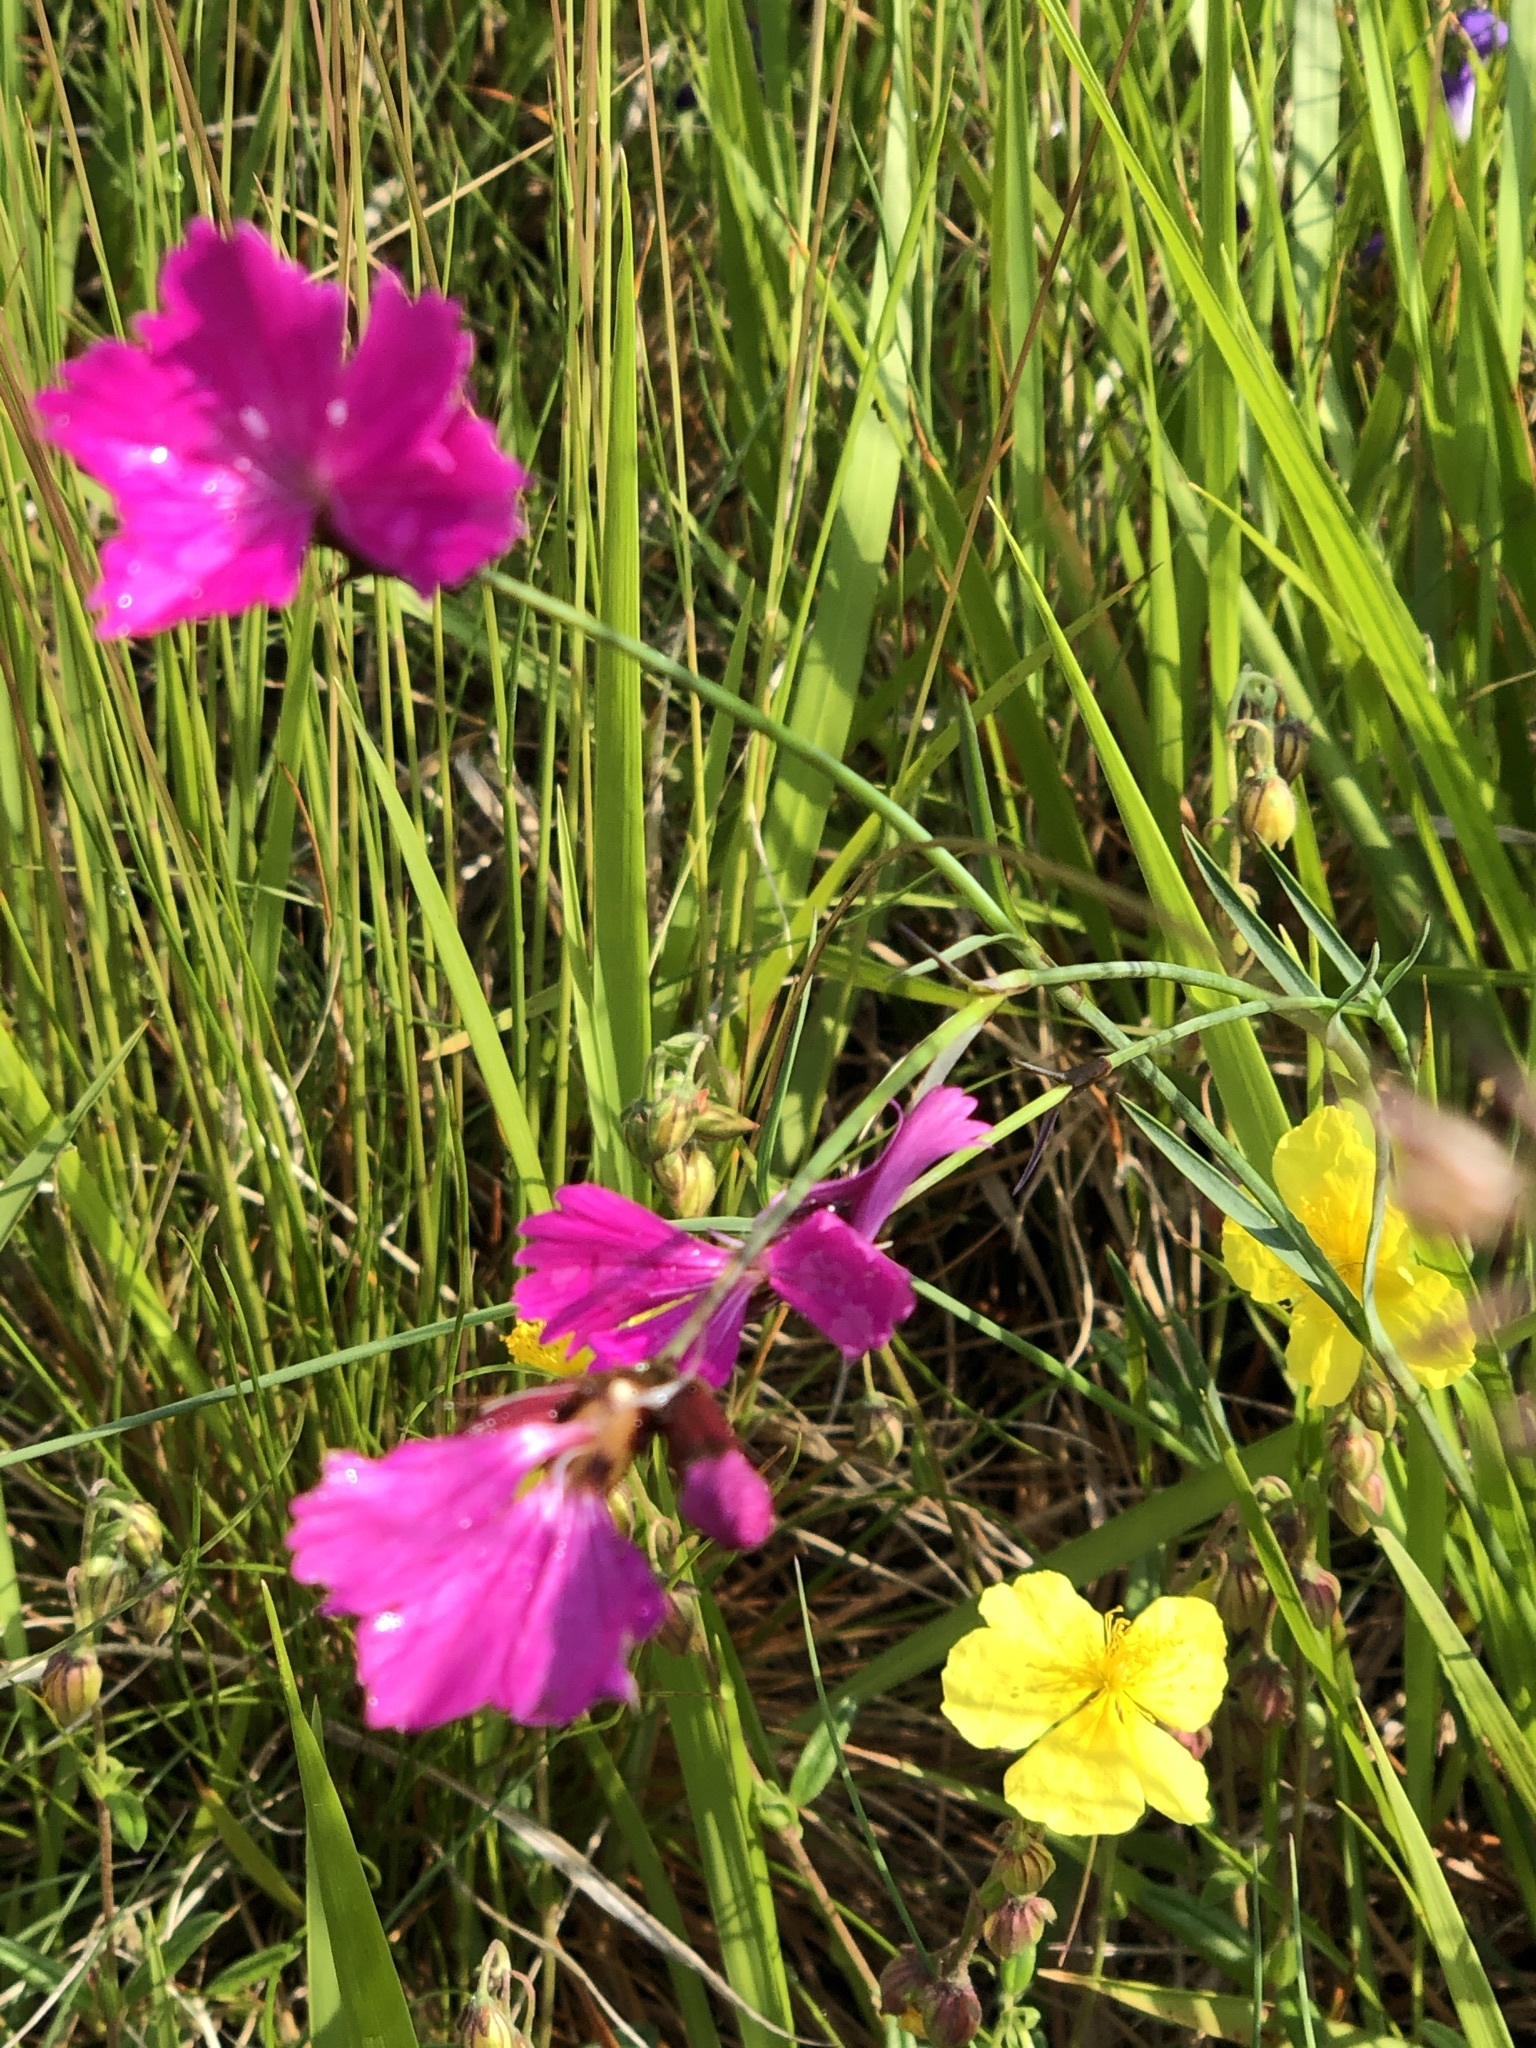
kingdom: Plantae
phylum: Tracheophyta
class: Magnoliopsida
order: Caryophyllales
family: Caryophyllaceae
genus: Dianthus
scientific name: Dianthus carthusianorum
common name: Carthusian pink
